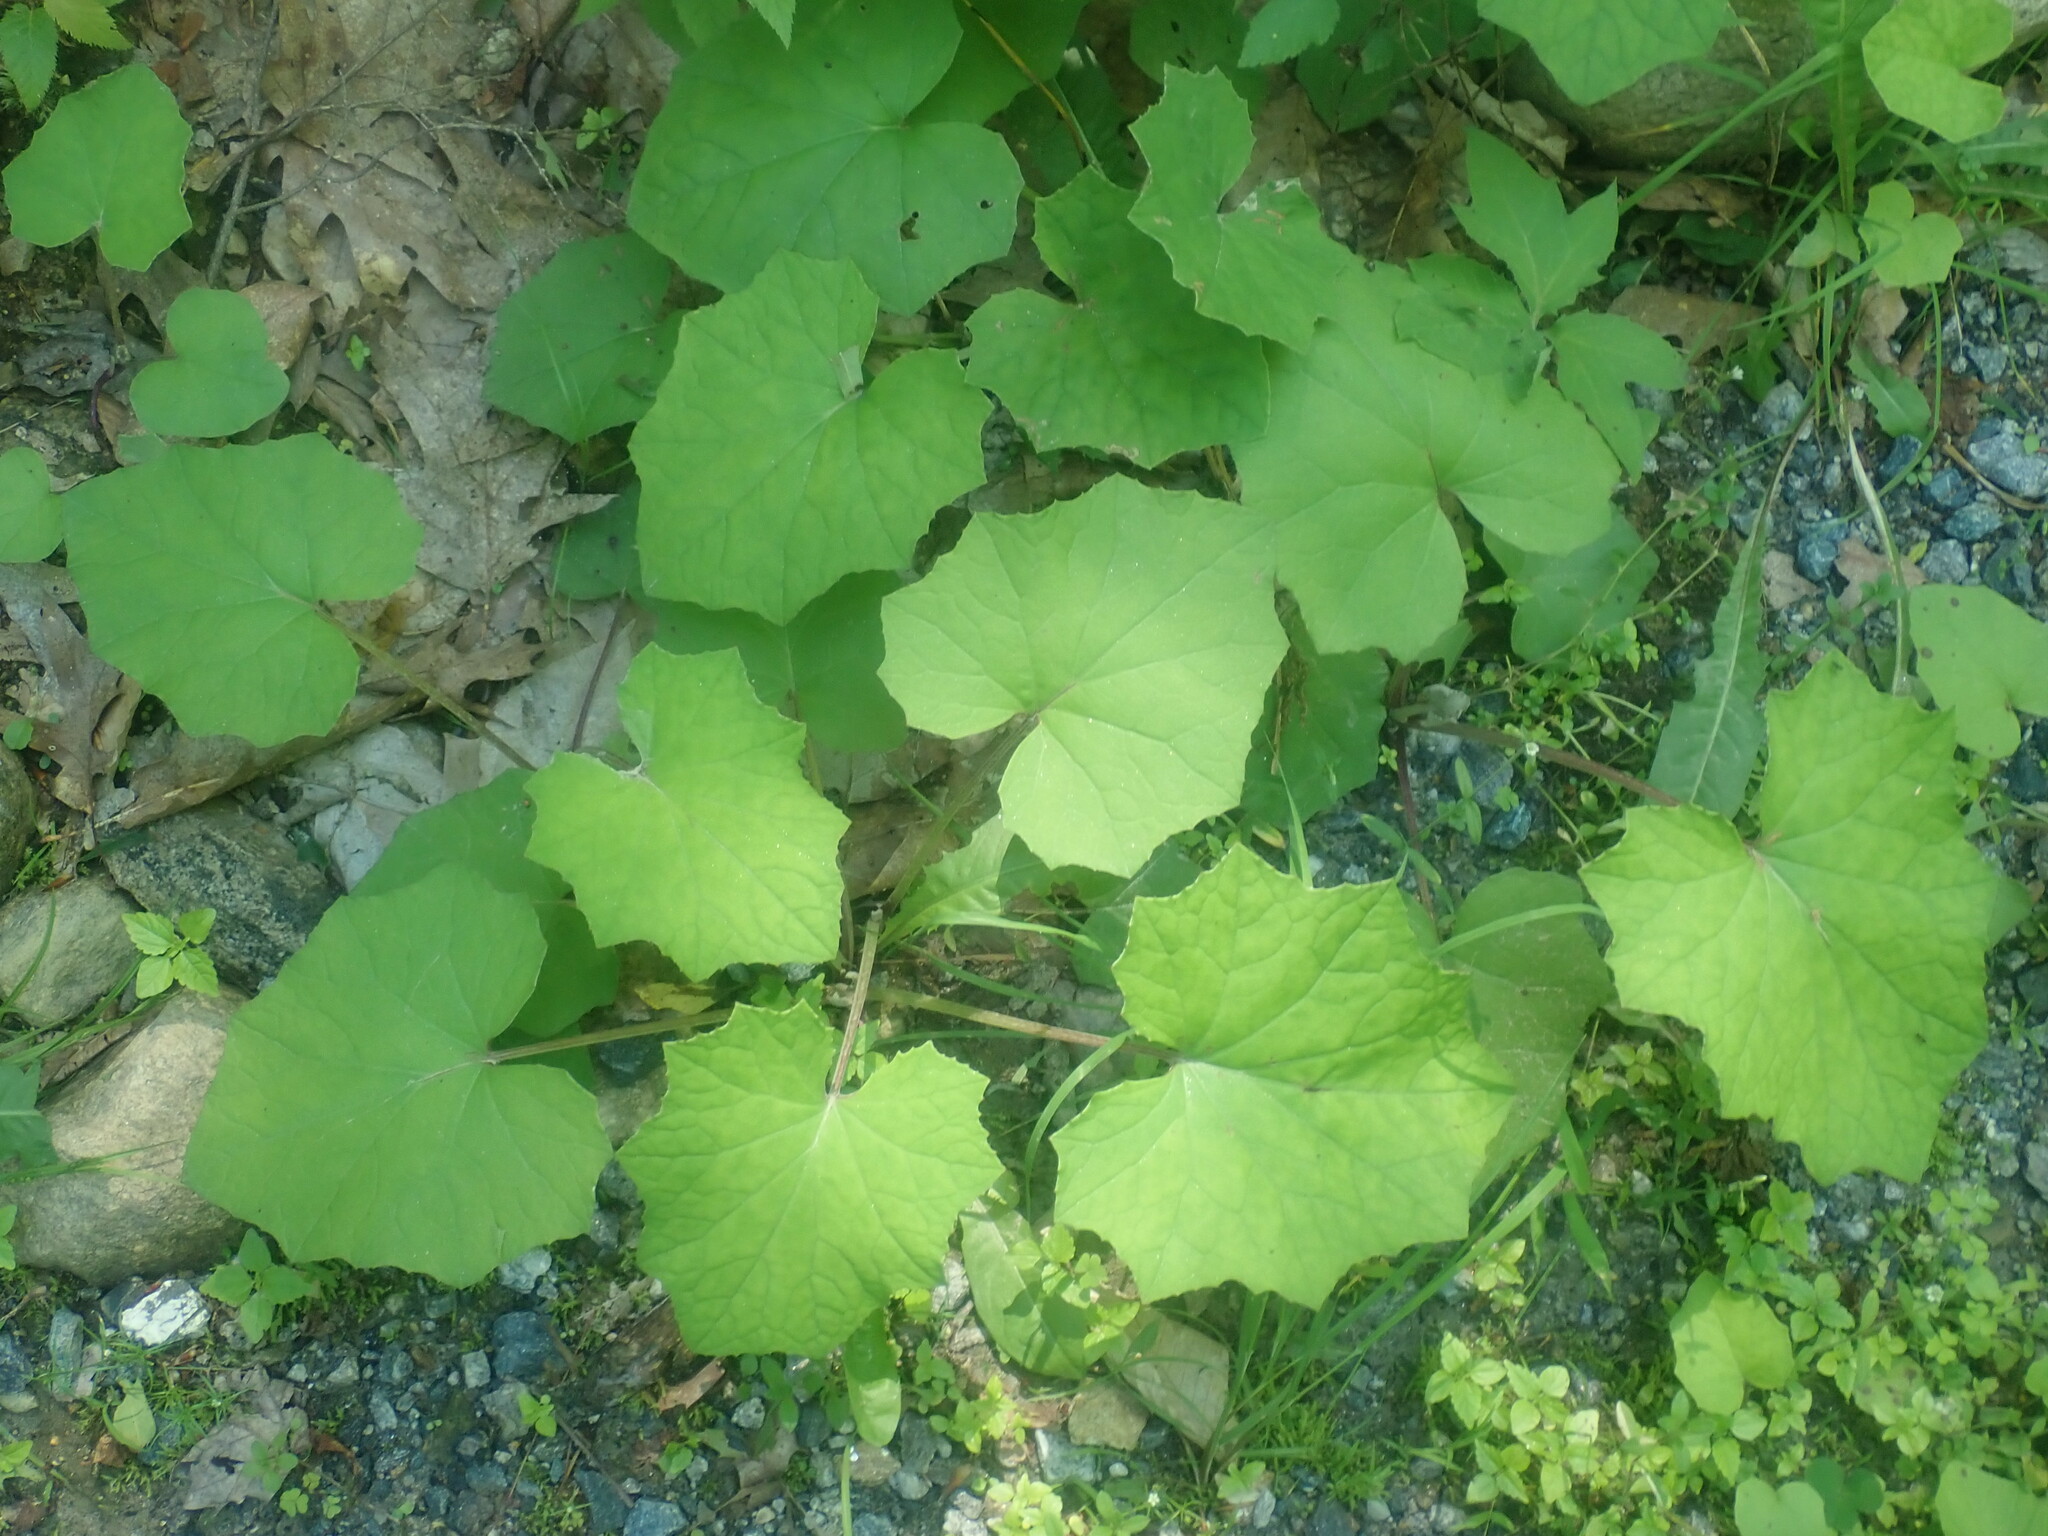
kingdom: Plantae
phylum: Tracheophyta
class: Magnoliopsida
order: Asterales
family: Asteraceae
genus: Tussilago
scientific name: Tussilago farfara
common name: Coltsfoot
